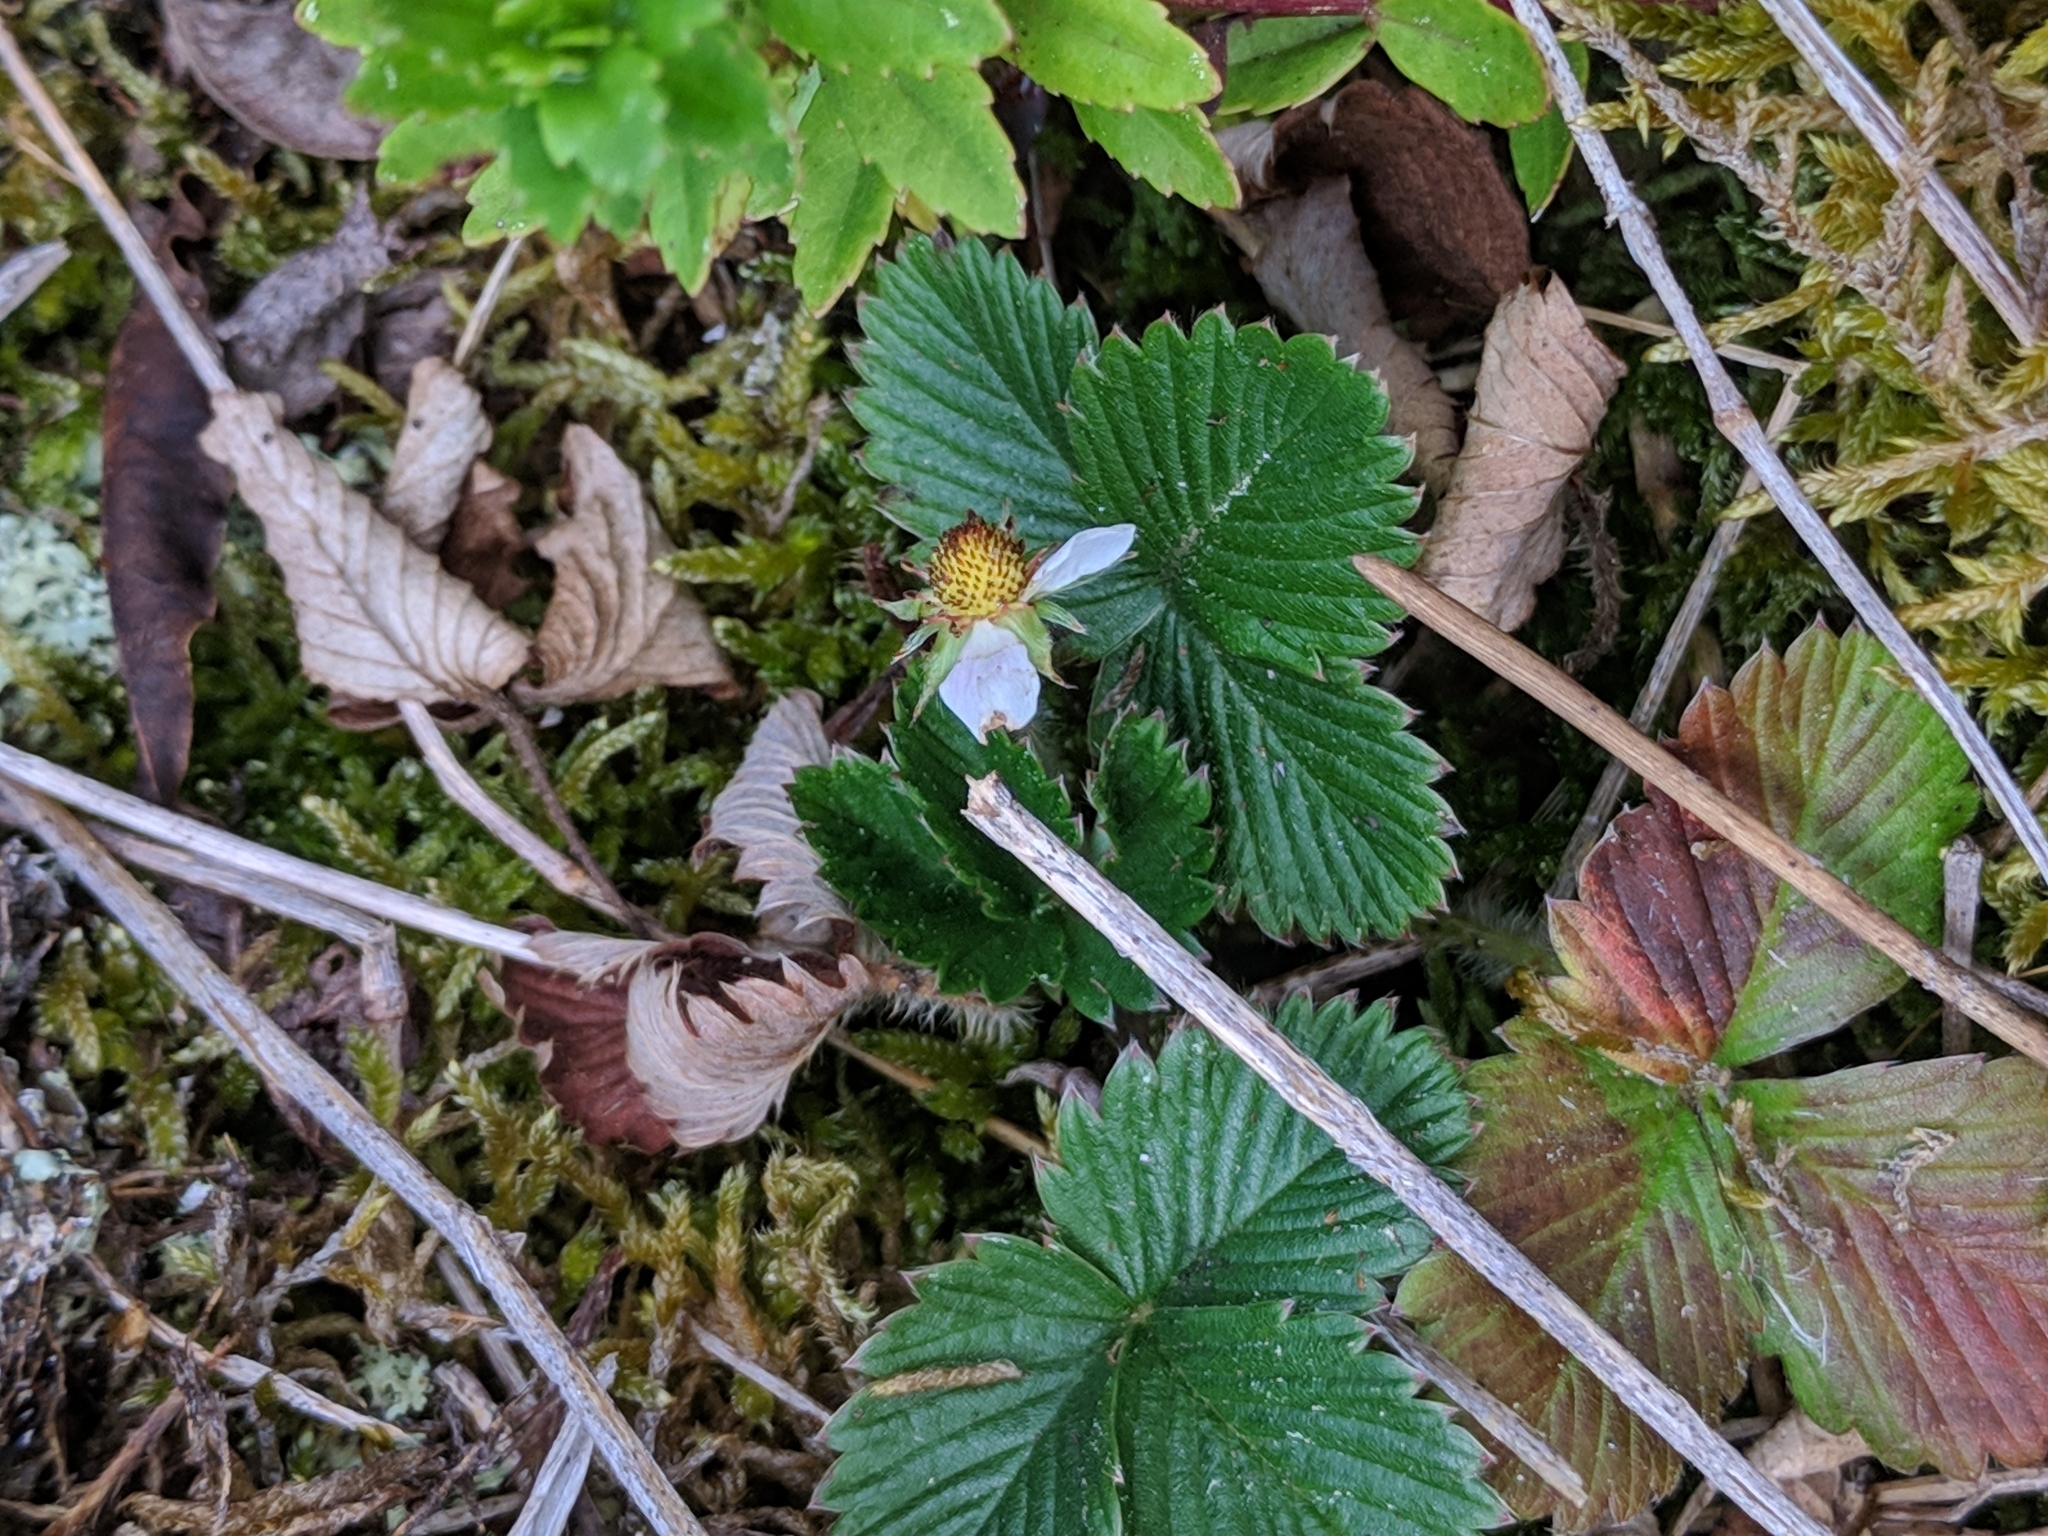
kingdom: Plantae
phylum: Tracheophyta
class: Magnoliopsida
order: Rosales
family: Rosaceae
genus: Fragaria
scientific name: Fragaria vesca
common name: Wild strawberry
